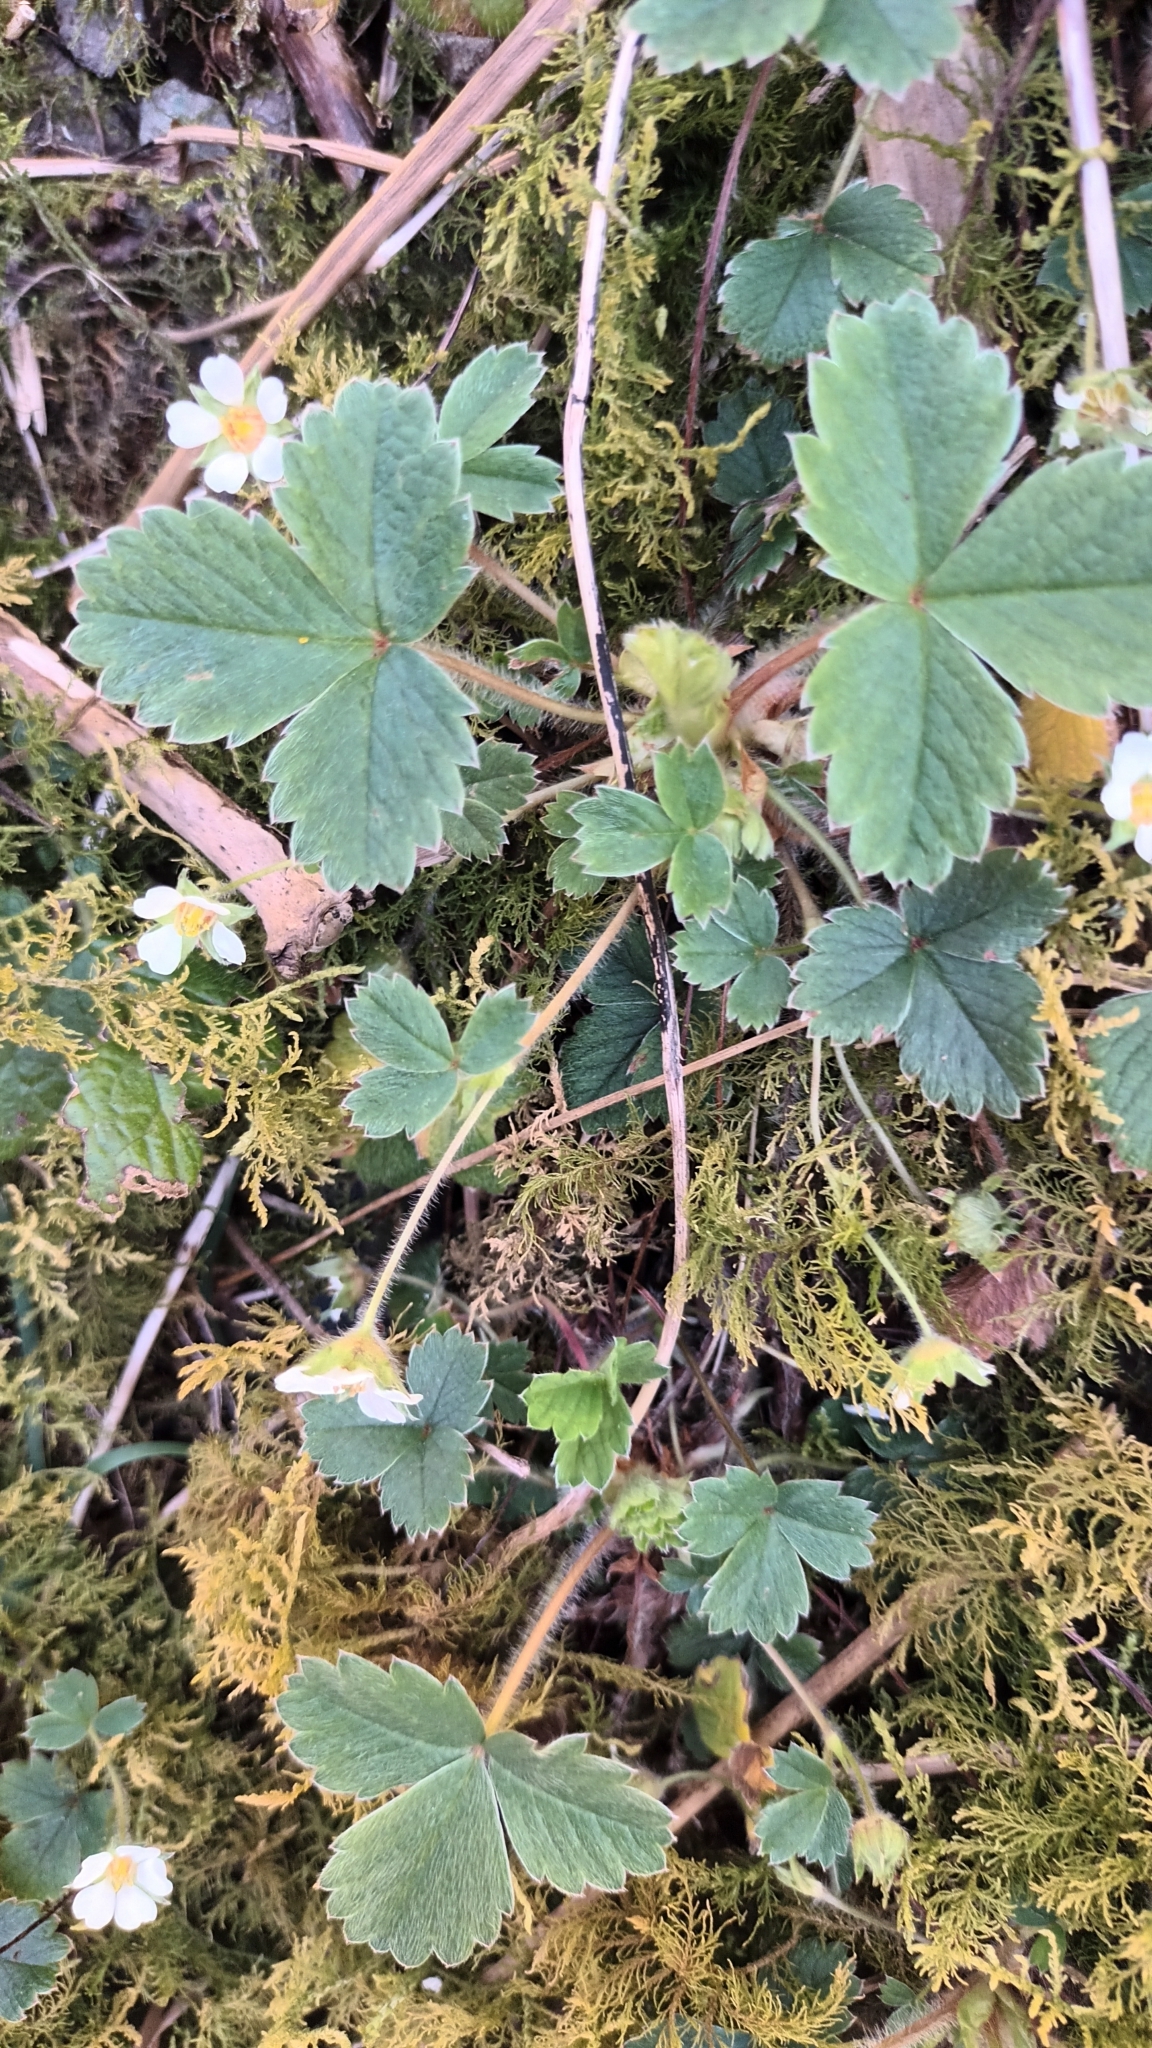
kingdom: Plantae
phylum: Tracheophyta
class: Magnoliopsida
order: Rosales
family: Rosaceae
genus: Potentilla
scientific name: Potentilla sterilis
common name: Barren strawberry
